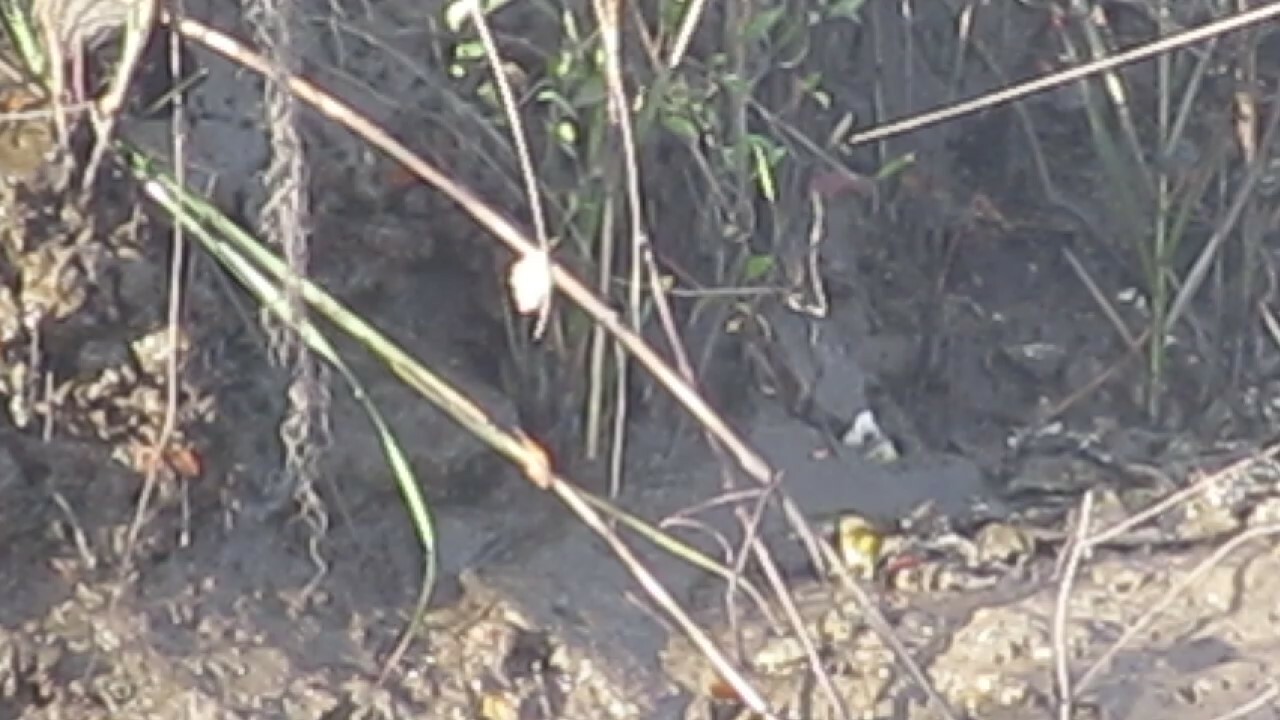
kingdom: Animalia
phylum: Chordata
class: Aves
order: Passeriformes
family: Parulidae
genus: Geothlypis
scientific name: Geothlypis trichas
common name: Common yellowthroat
